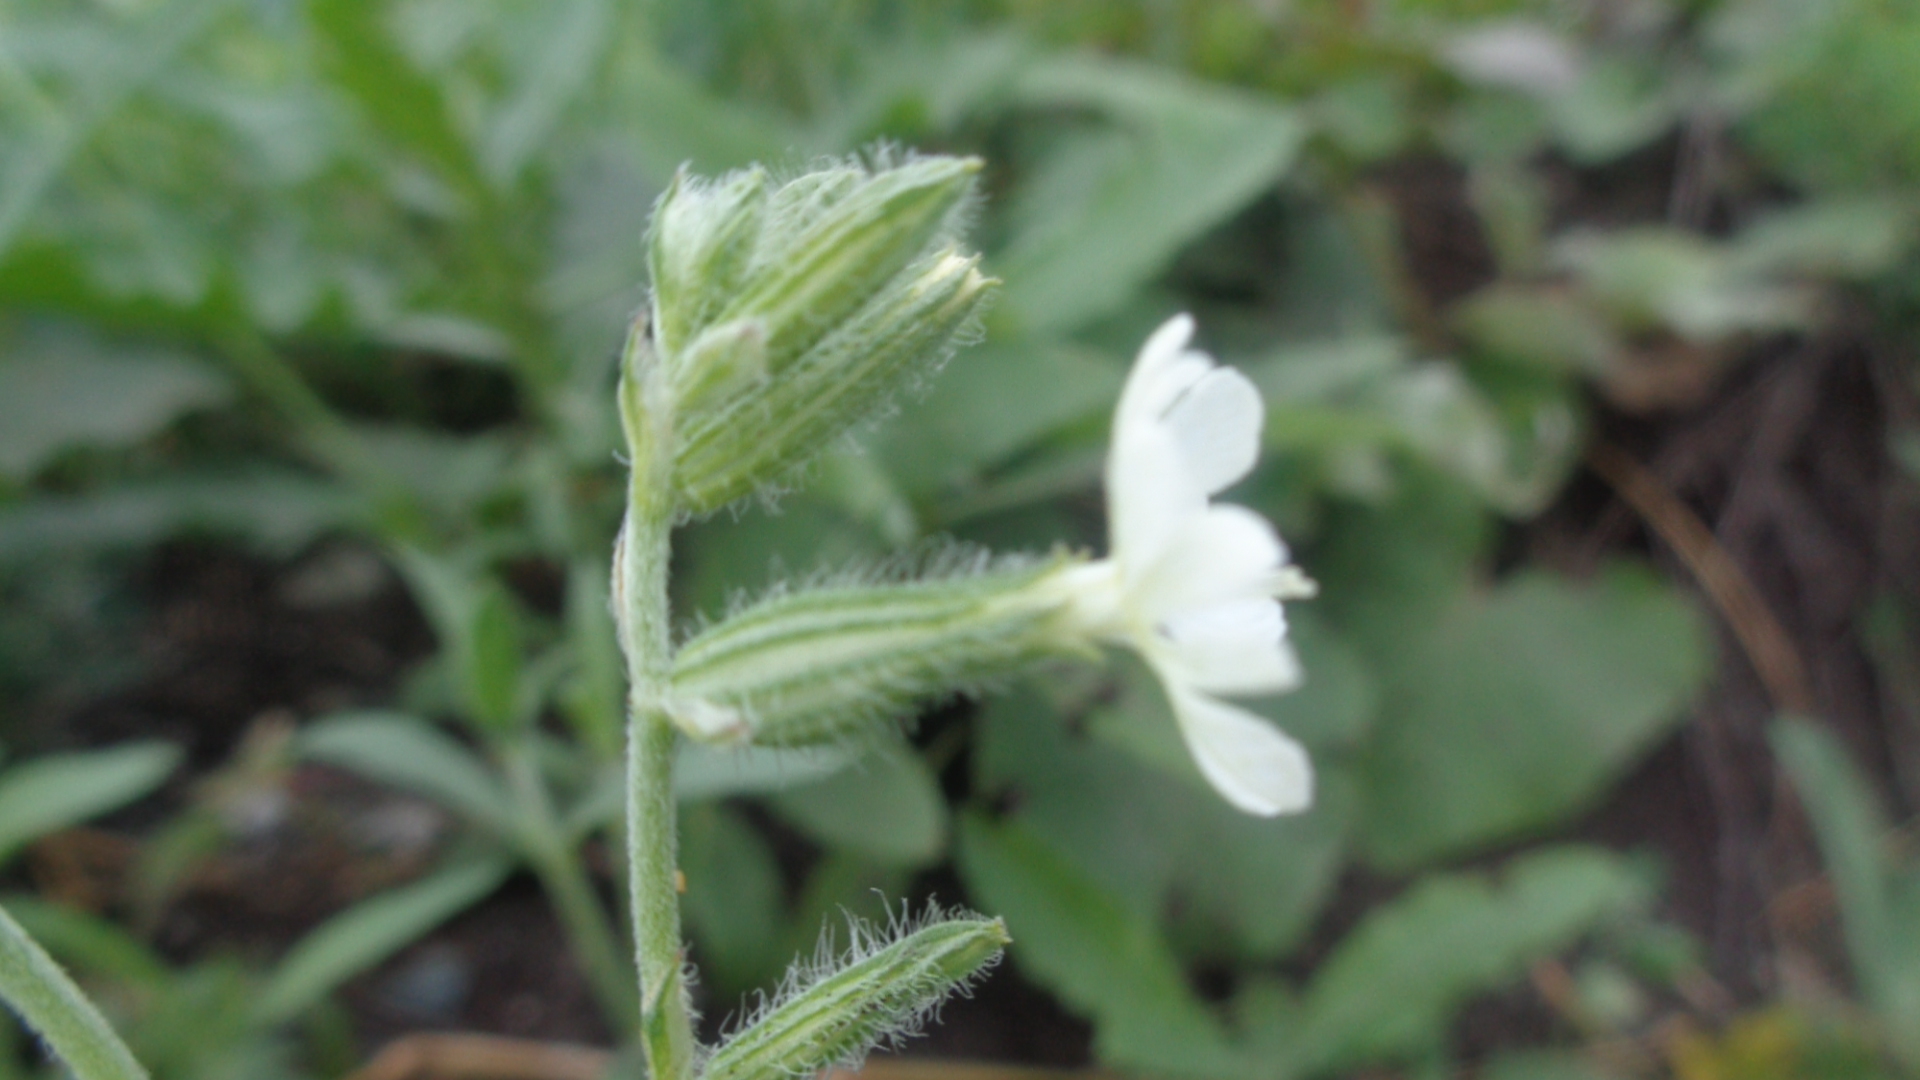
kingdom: Plantae
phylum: Tracheophyta
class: Magnoliopsida
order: Caryophyllales
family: Caryophyllaceae
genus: Silene
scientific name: Silene dichotoma
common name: Forked catchfly
